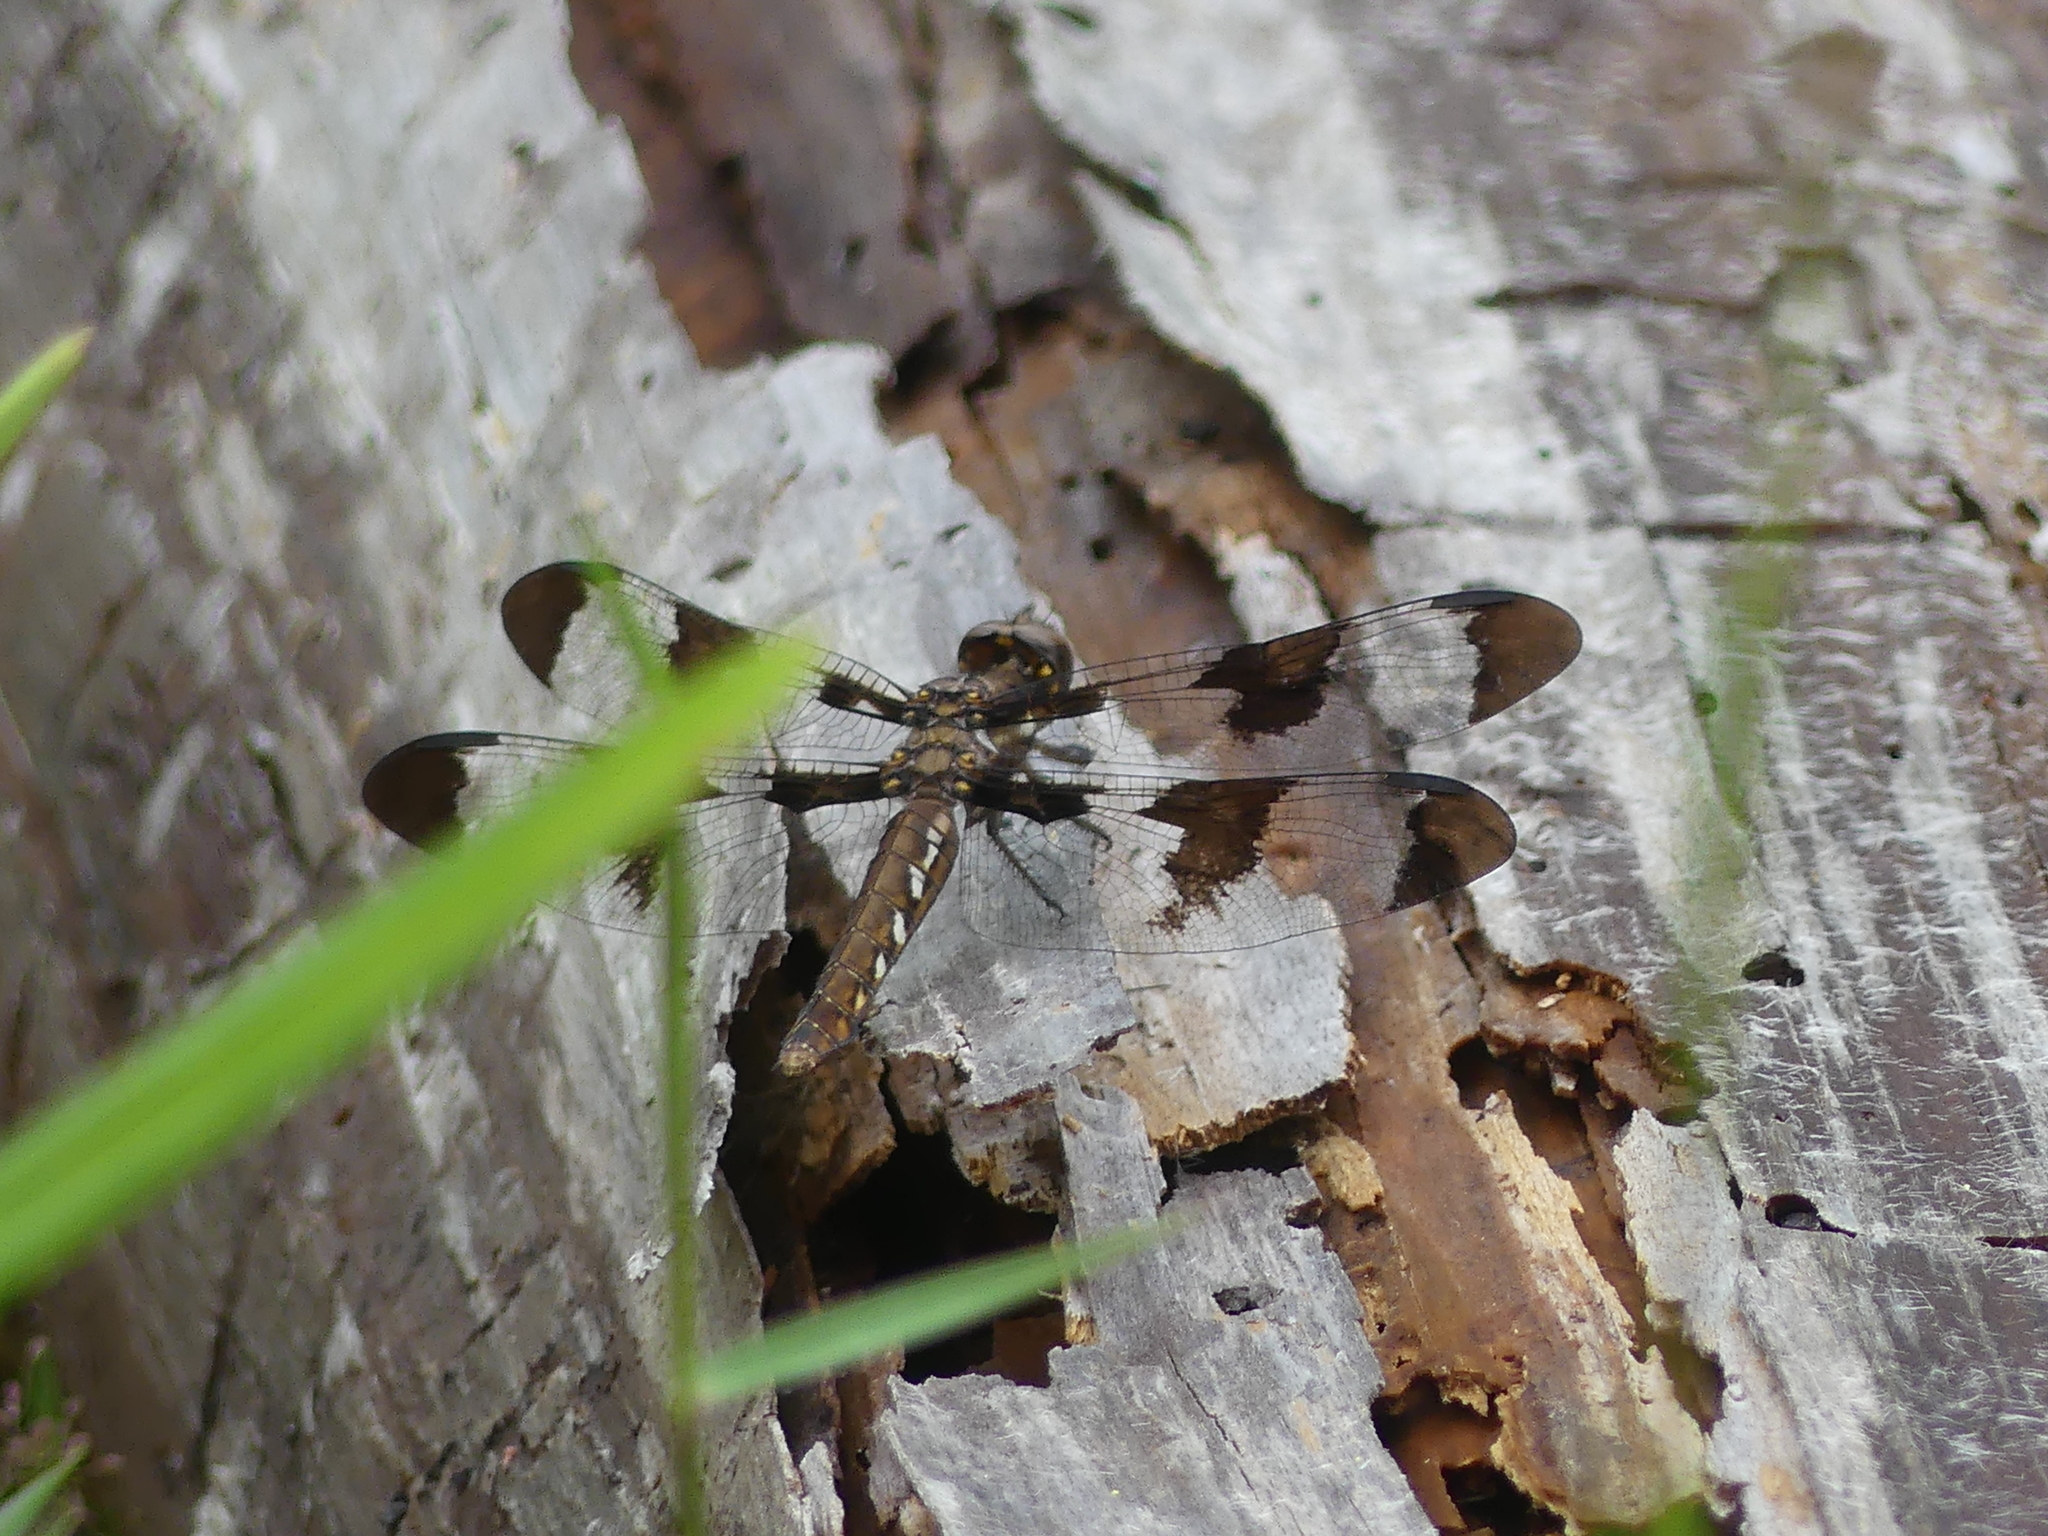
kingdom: Animalia
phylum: Arthropoda
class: Insecta
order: Odonata
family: Libellulidae
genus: Plathemis
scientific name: Plathemis lydia
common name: Common whitetail
